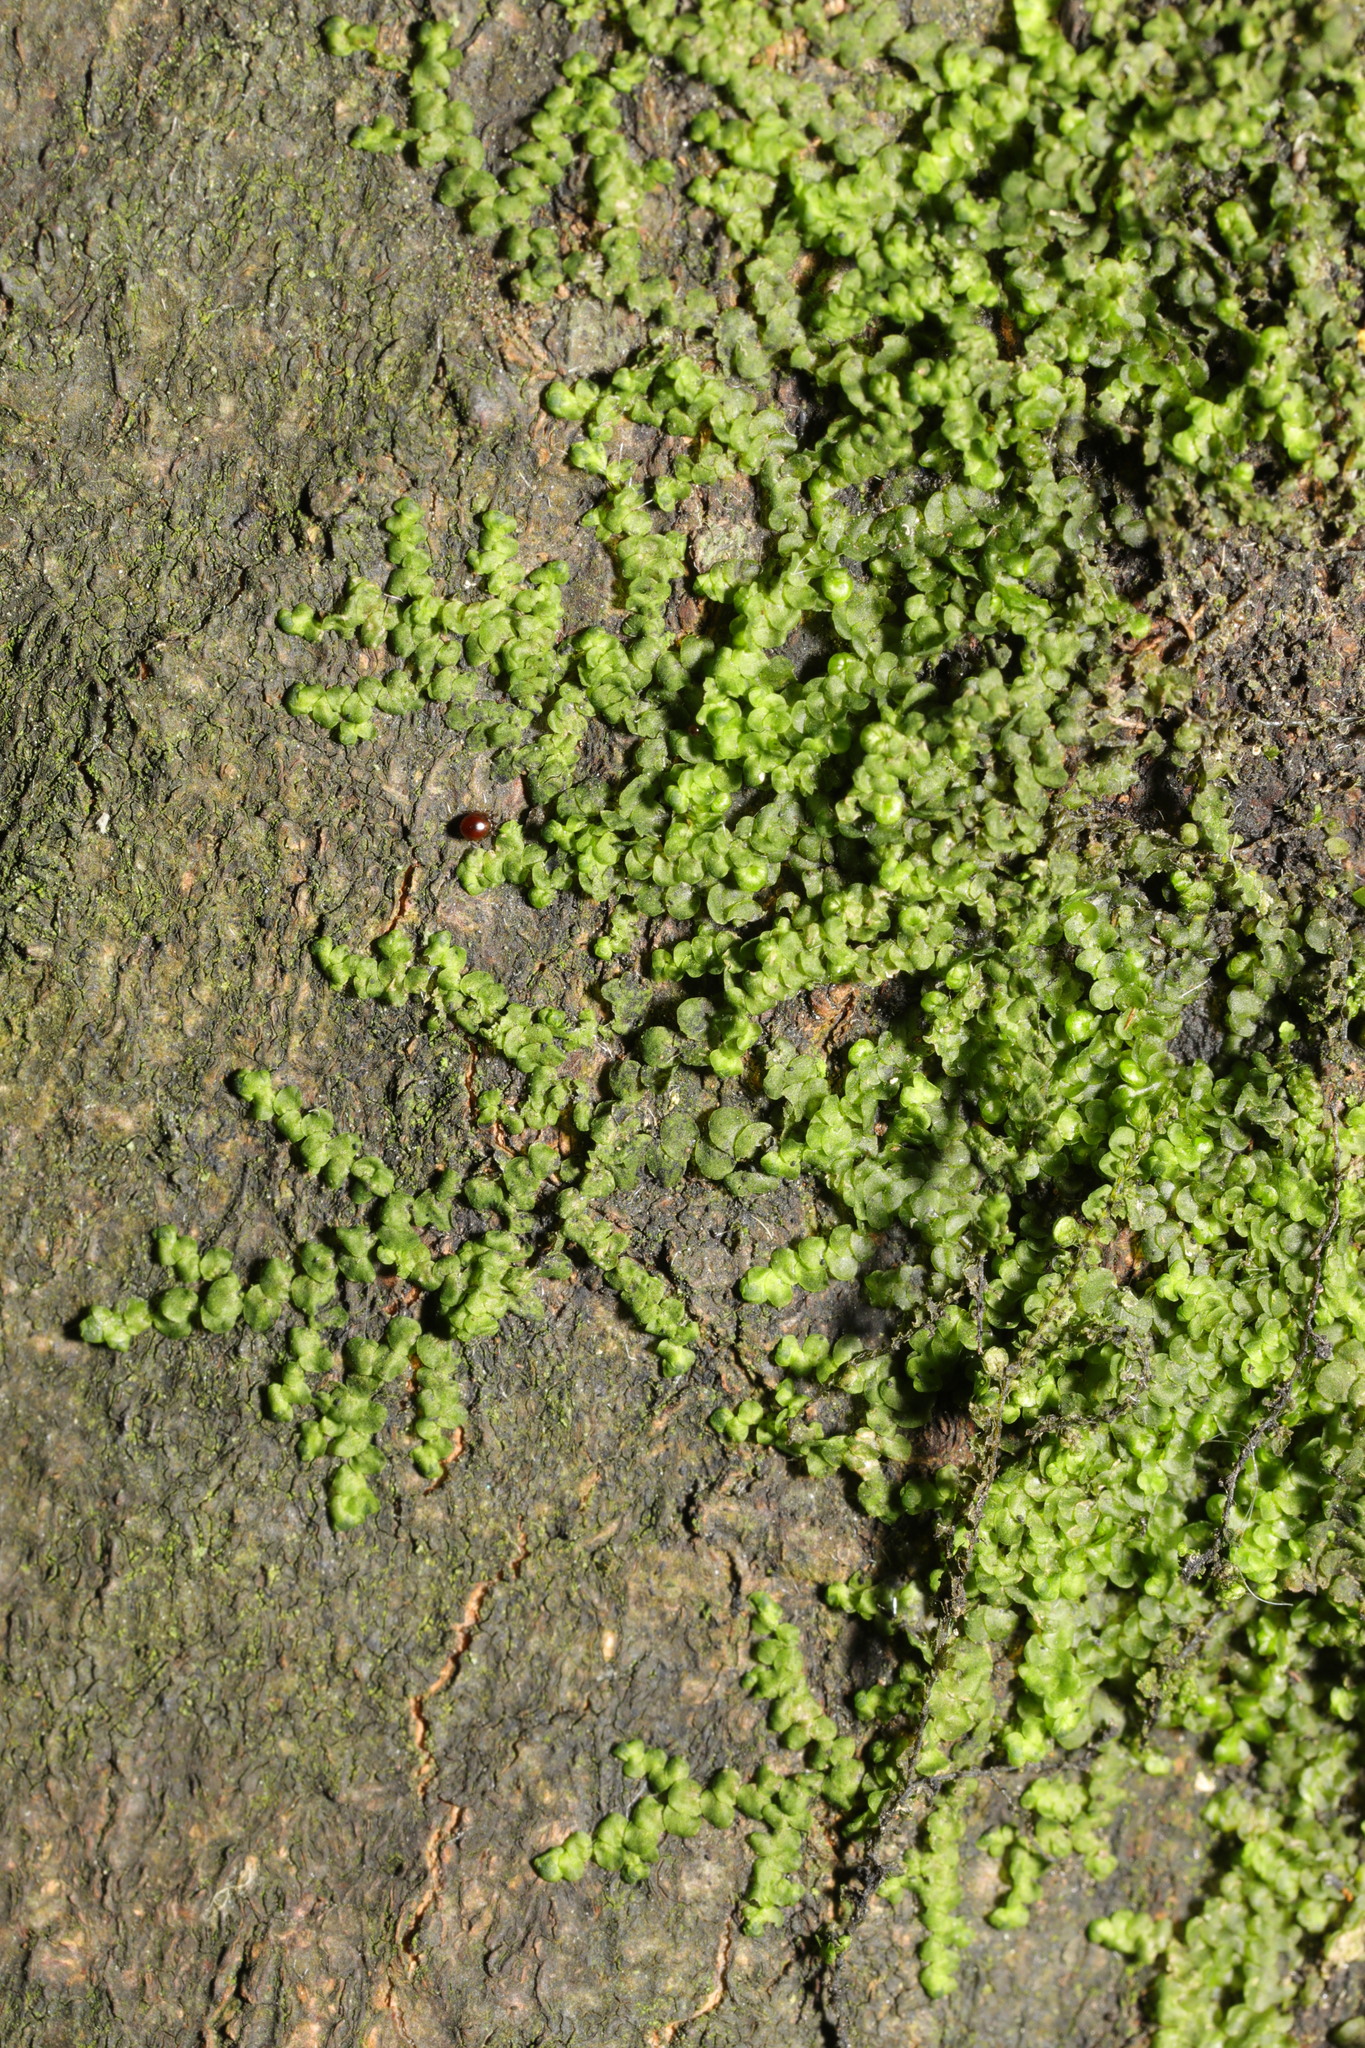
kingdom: Plantae
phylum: Marchantiophyta
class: Jungermanniopsida
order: Porellales
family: Frullaniaceae
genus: Frullania
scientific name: Frullania dilatata
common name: Dilated scalewort
